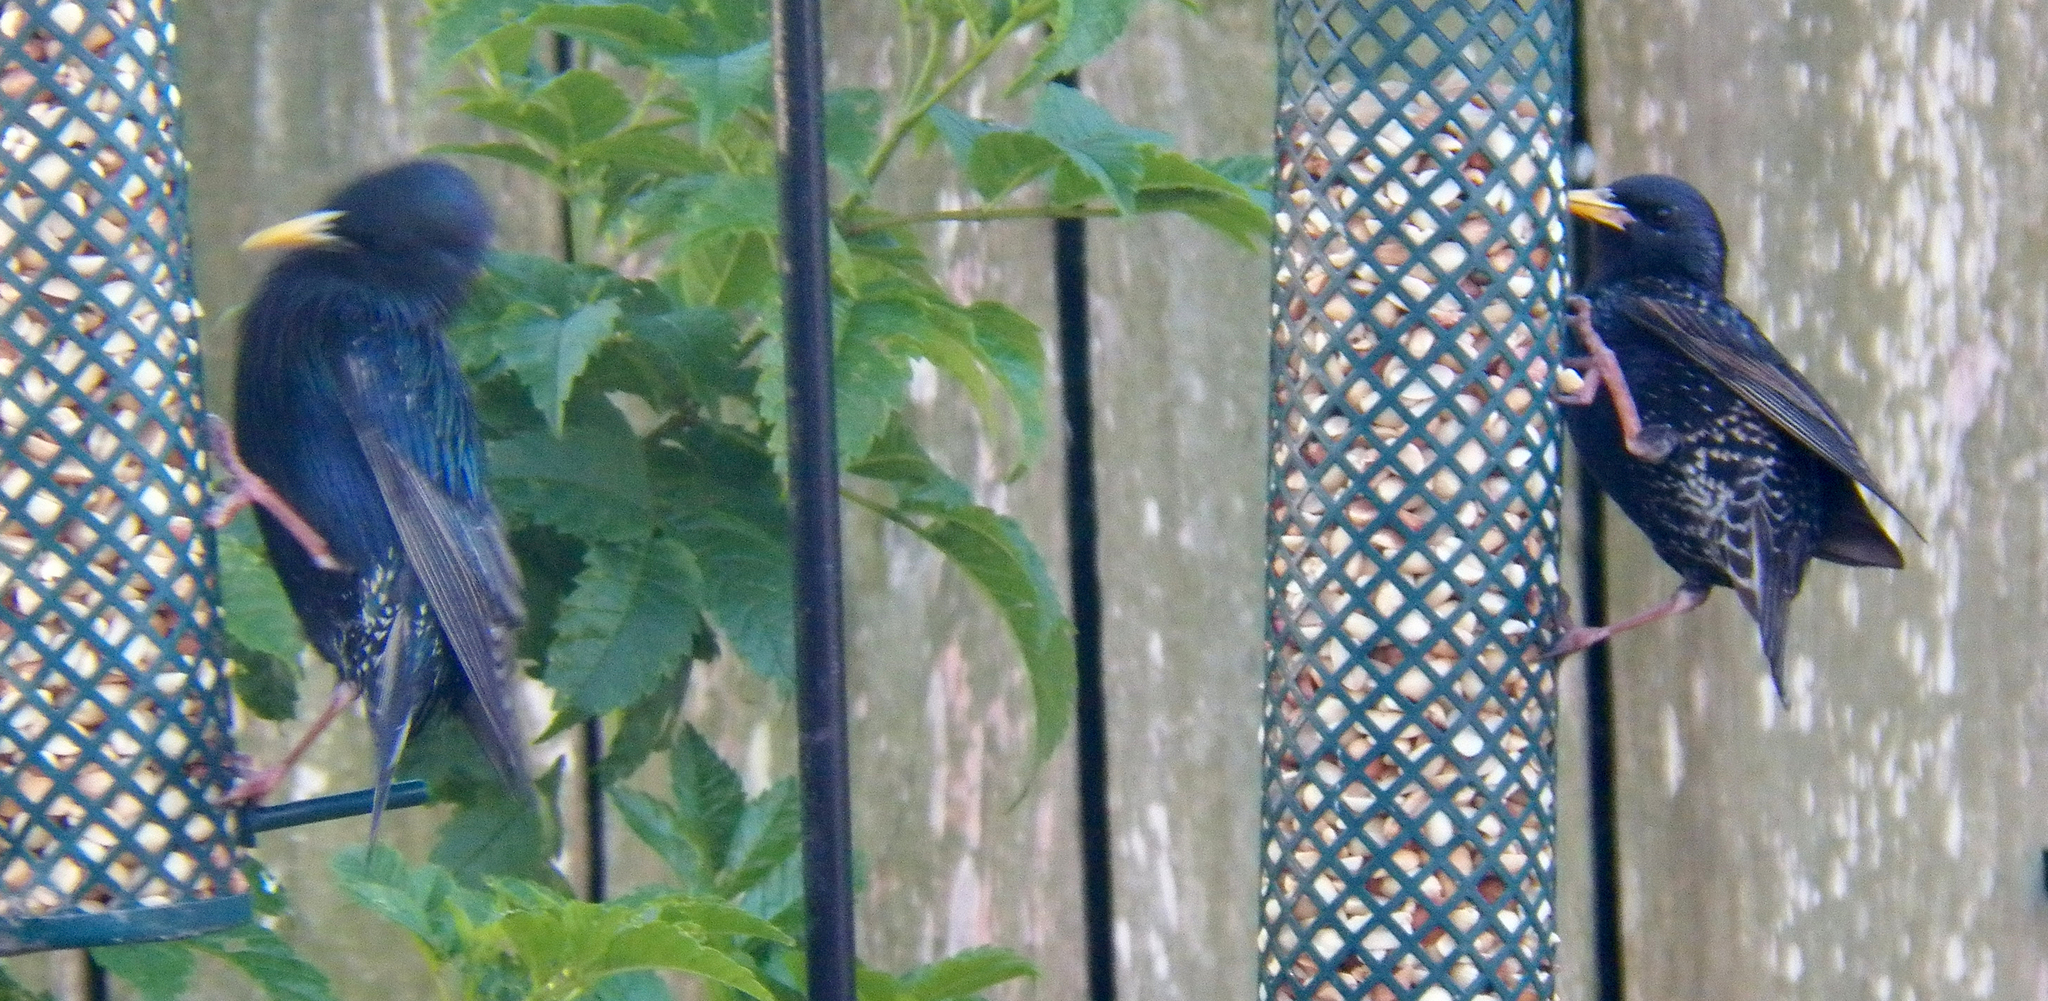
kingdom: Animalia
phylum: Chordata
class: Aves
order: Passeriformes
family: Sturnidae
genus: Sturnus
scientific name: Sturnus vulgaris
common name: Common starling
